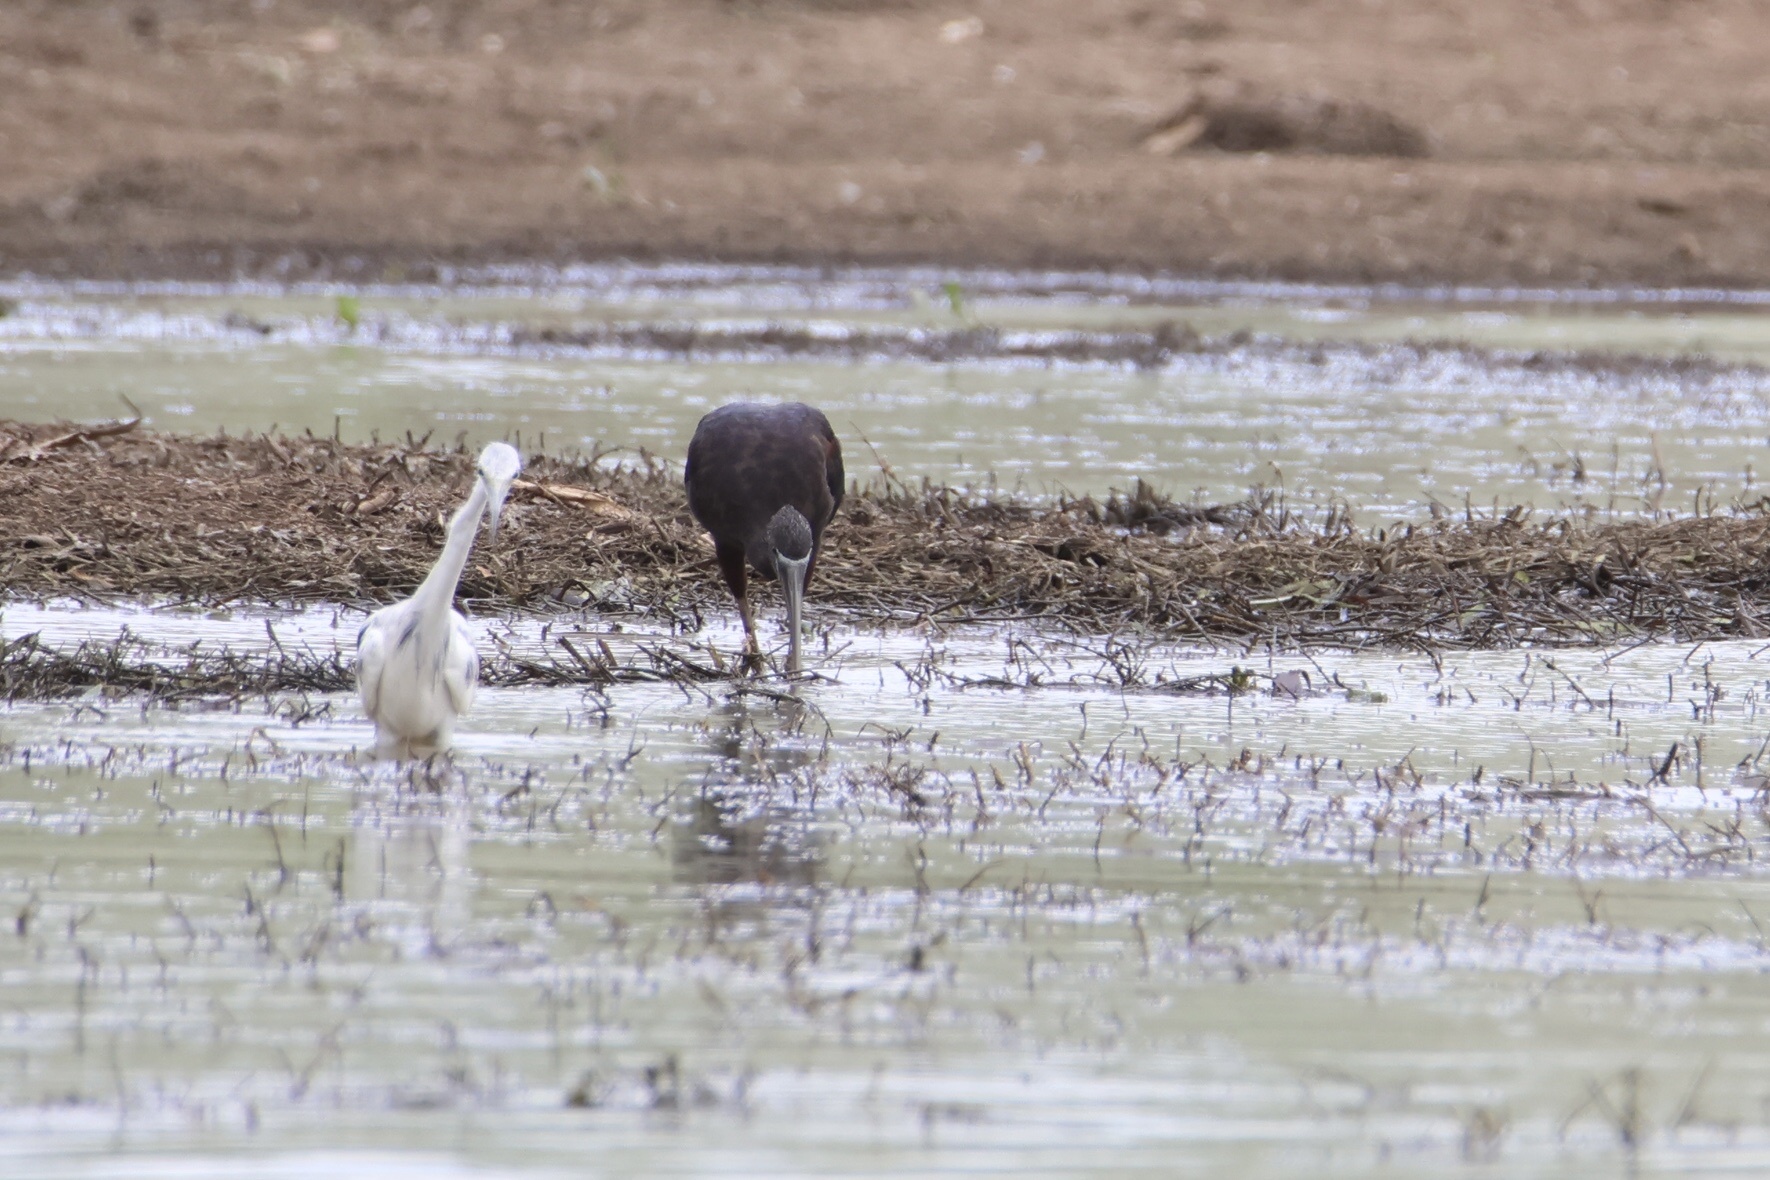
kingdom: Animalia
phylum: Chordata
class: Aves
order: Pelecaniformes
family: Threskiornithidae
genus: Plegadis
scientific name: Plegadis falcinellus
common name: Glossy ibis
